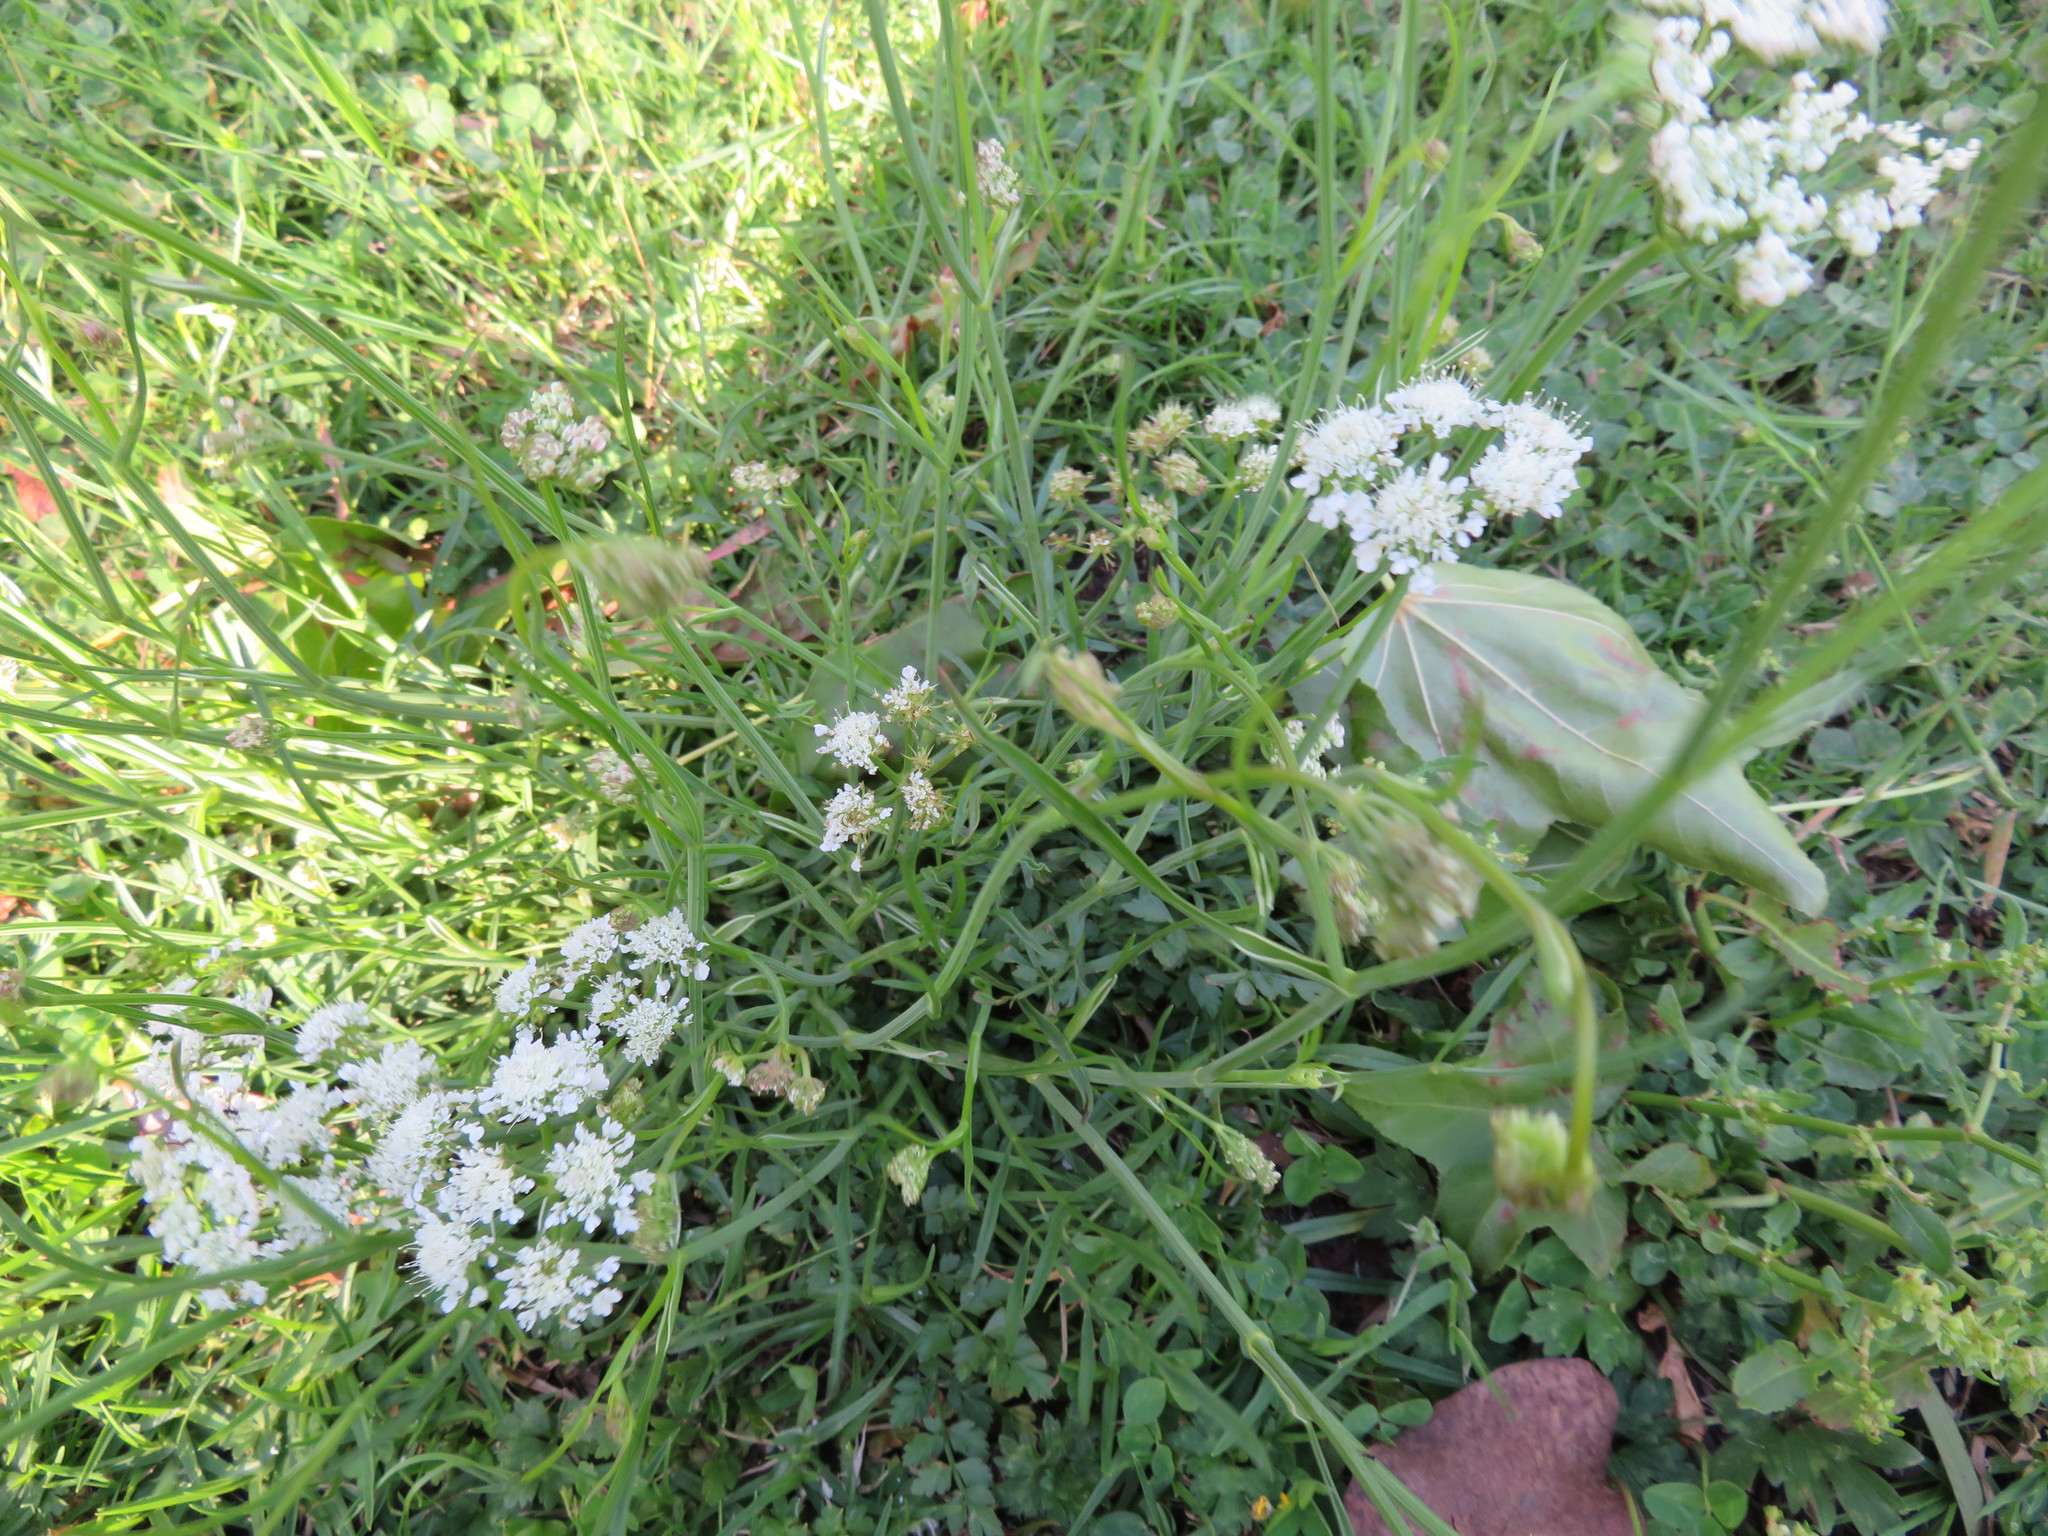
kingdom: Plantae
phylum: Tracheophyta
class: Magnoliopsida
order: Apiales
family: Apiaceae
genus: Oenanthe
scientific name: Oenanthe pimpinelloides
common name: Corky-fruited water-dropwort
